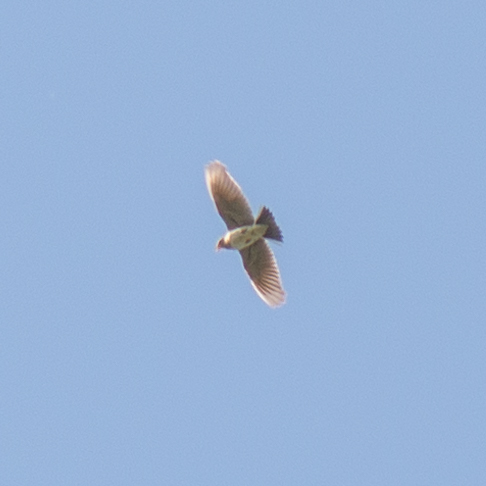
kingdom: Animalia
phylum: Chordata
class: Aves
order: Passeriformes
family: Alaudidae
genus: Alauda
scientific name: Alauda arvensis
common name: Eurasian skylark
